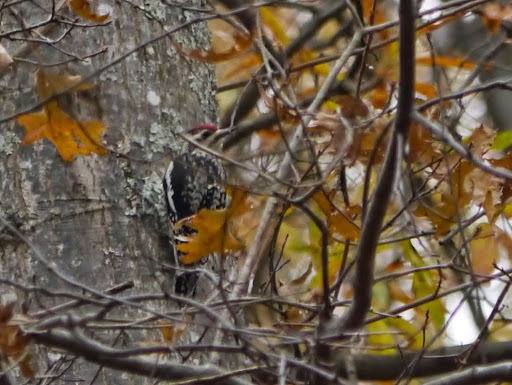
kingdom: Animalia
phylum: Chordata
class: Aves
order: Piciformes
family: Picidae
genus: Sphyrapicus
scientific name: Sphyrapicus varius
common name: Yellow-bellied sapsucker
